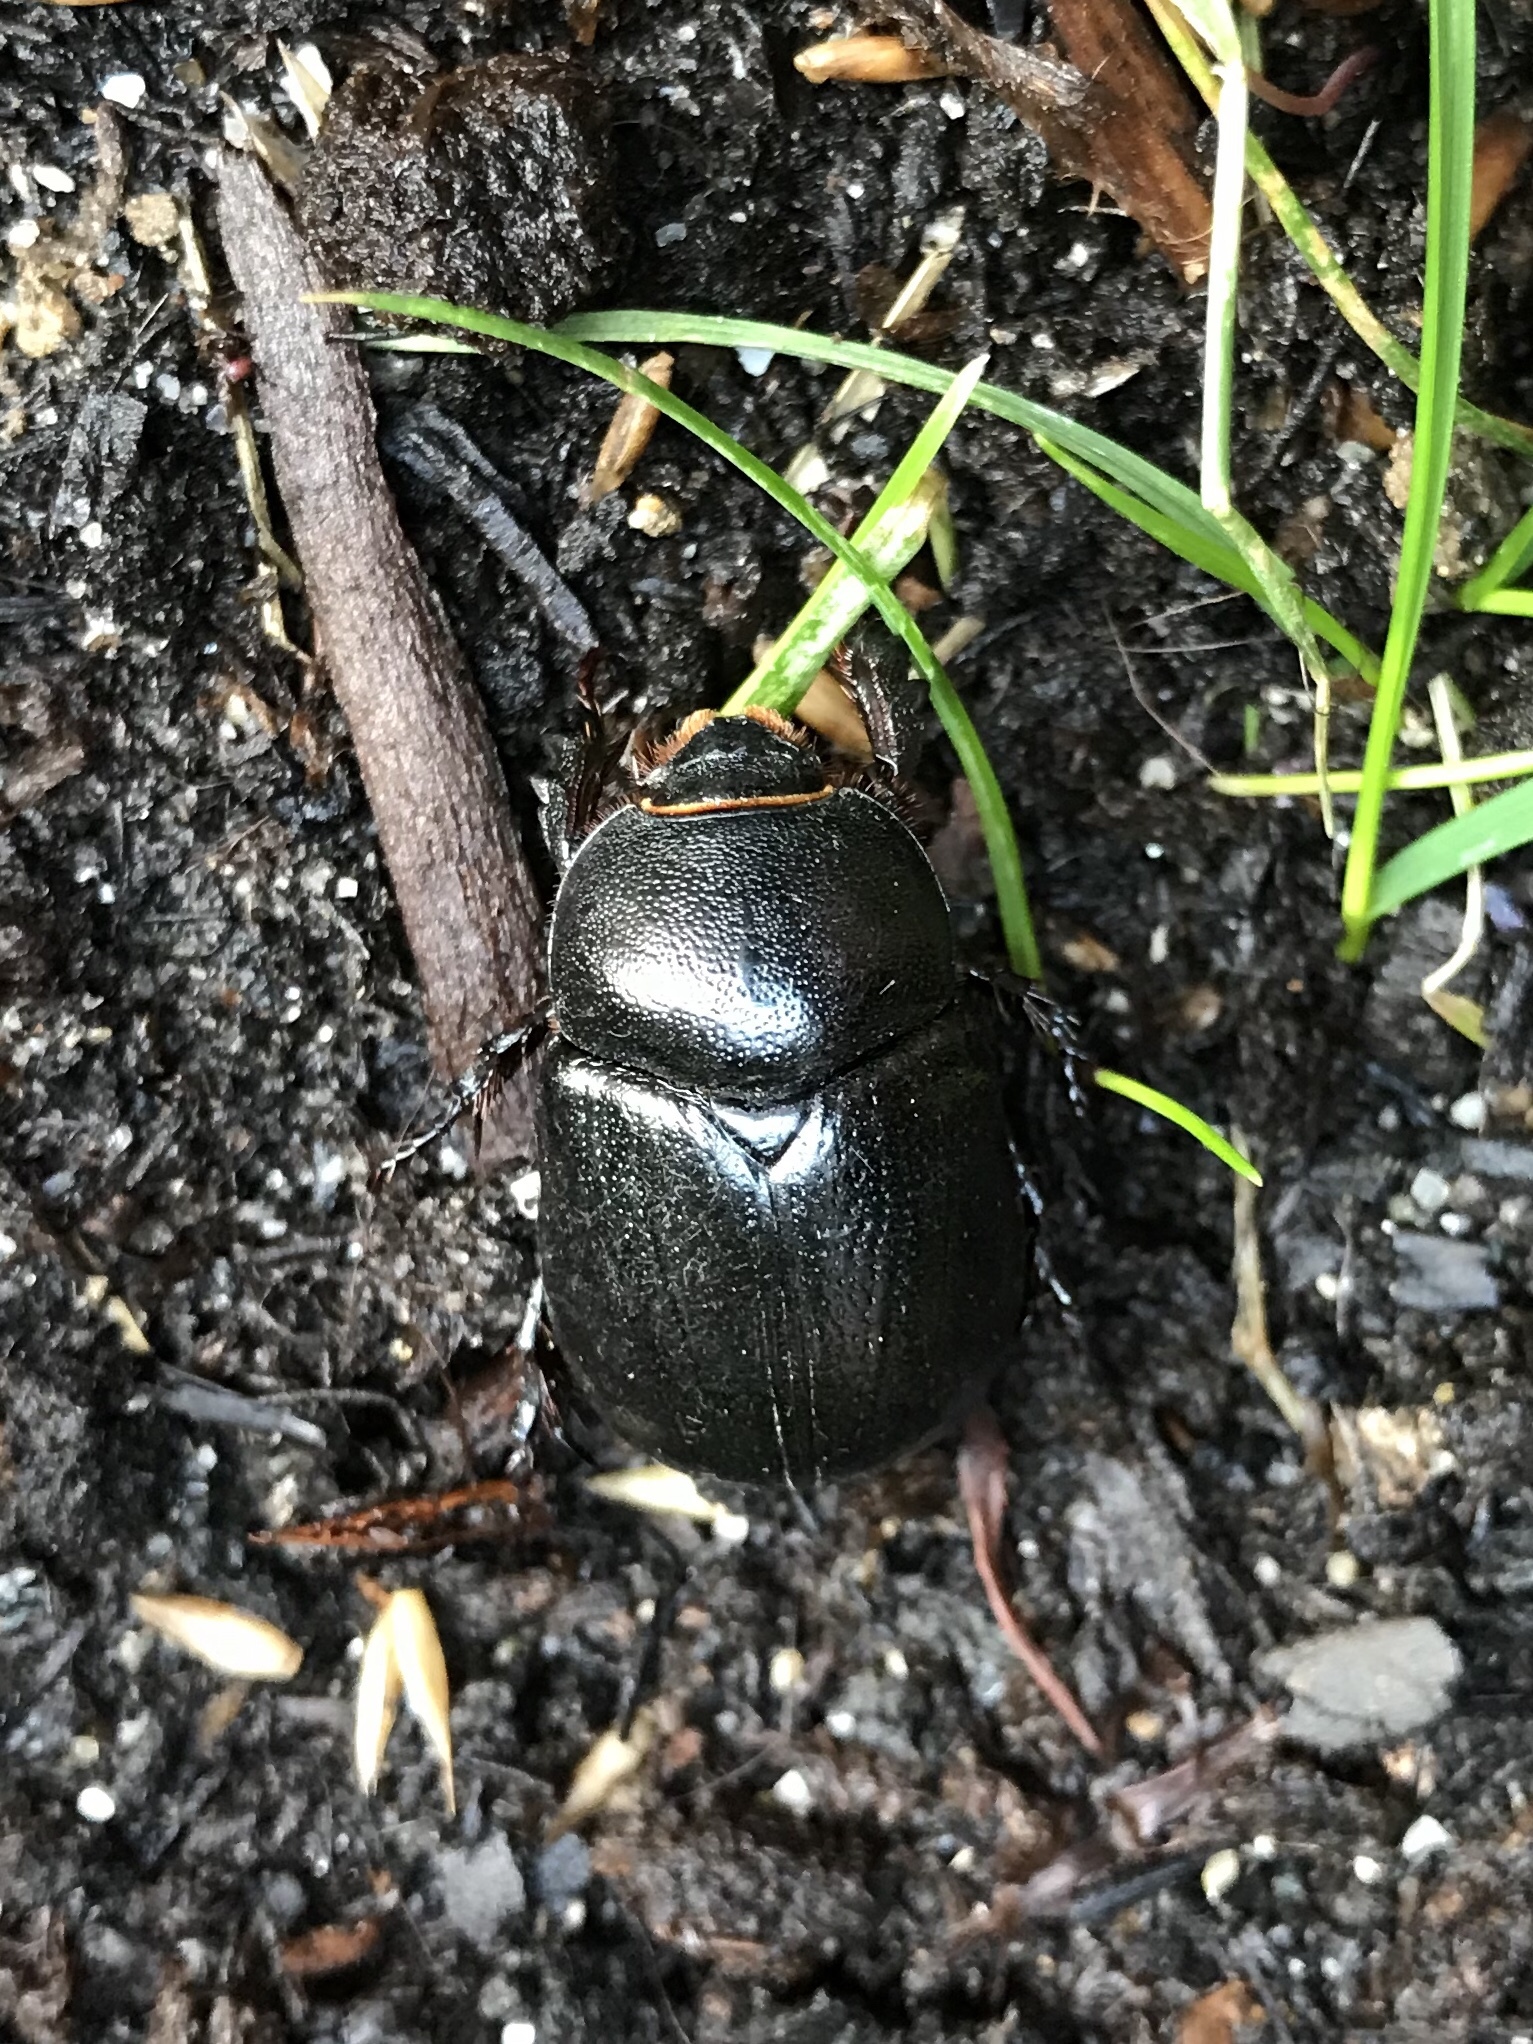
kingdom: Animalia
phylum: Arthropoda
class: Insecta
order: Coleoptera
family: Scarabaeidae
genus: Pentodon
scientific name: Pentodon bidens
